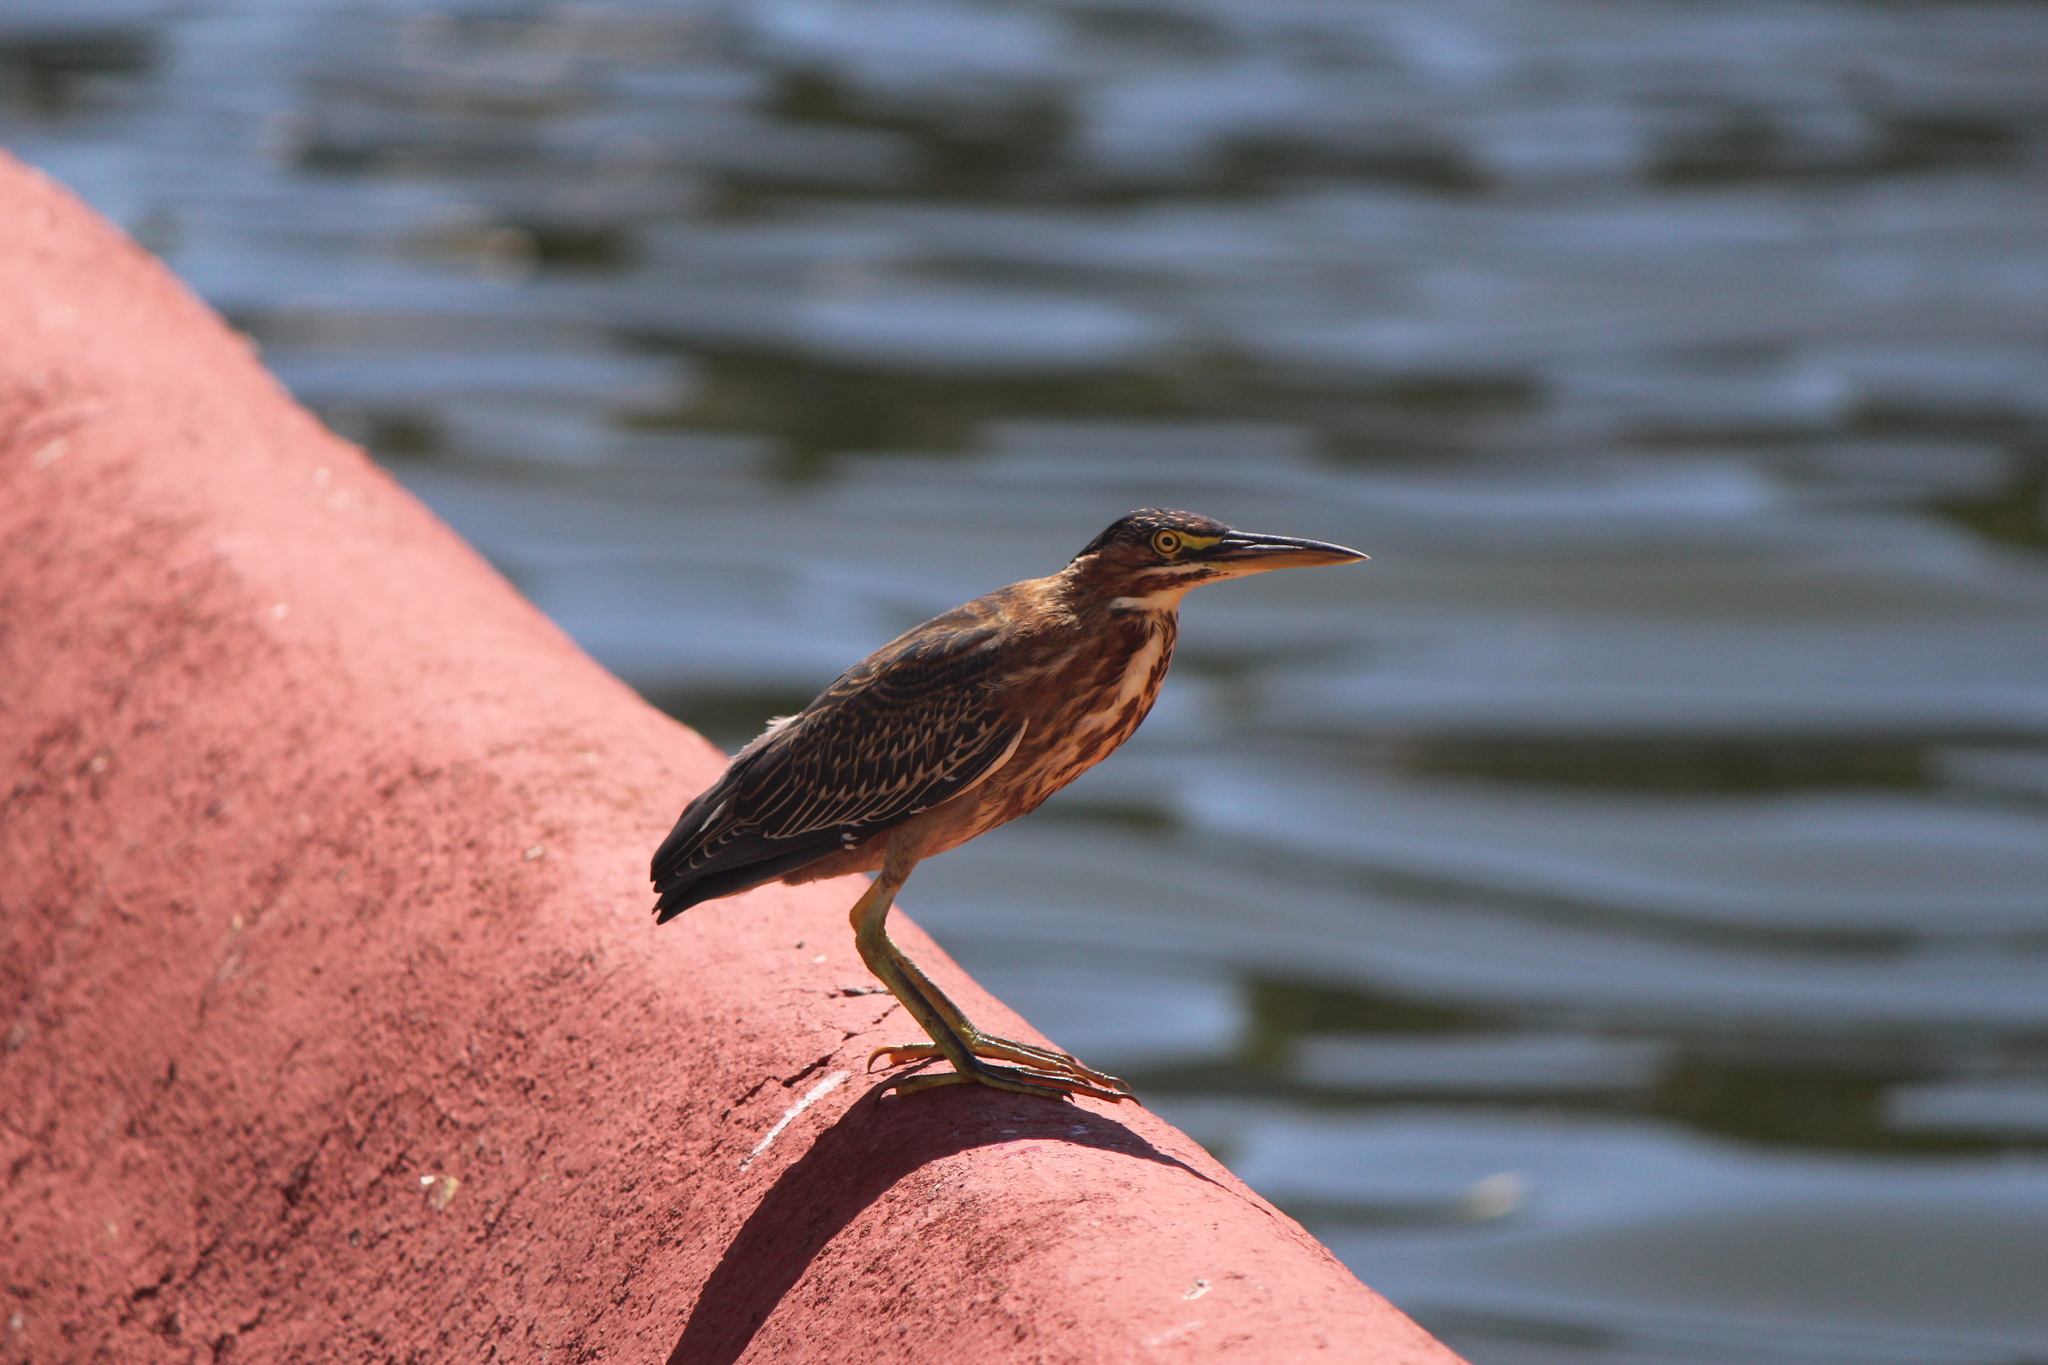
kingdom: Animalia
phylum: Chordata
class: Aves
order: Pelecaniformes
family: Ardeidae
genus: Butorides
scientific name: Butorides virescens
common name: Green heron
